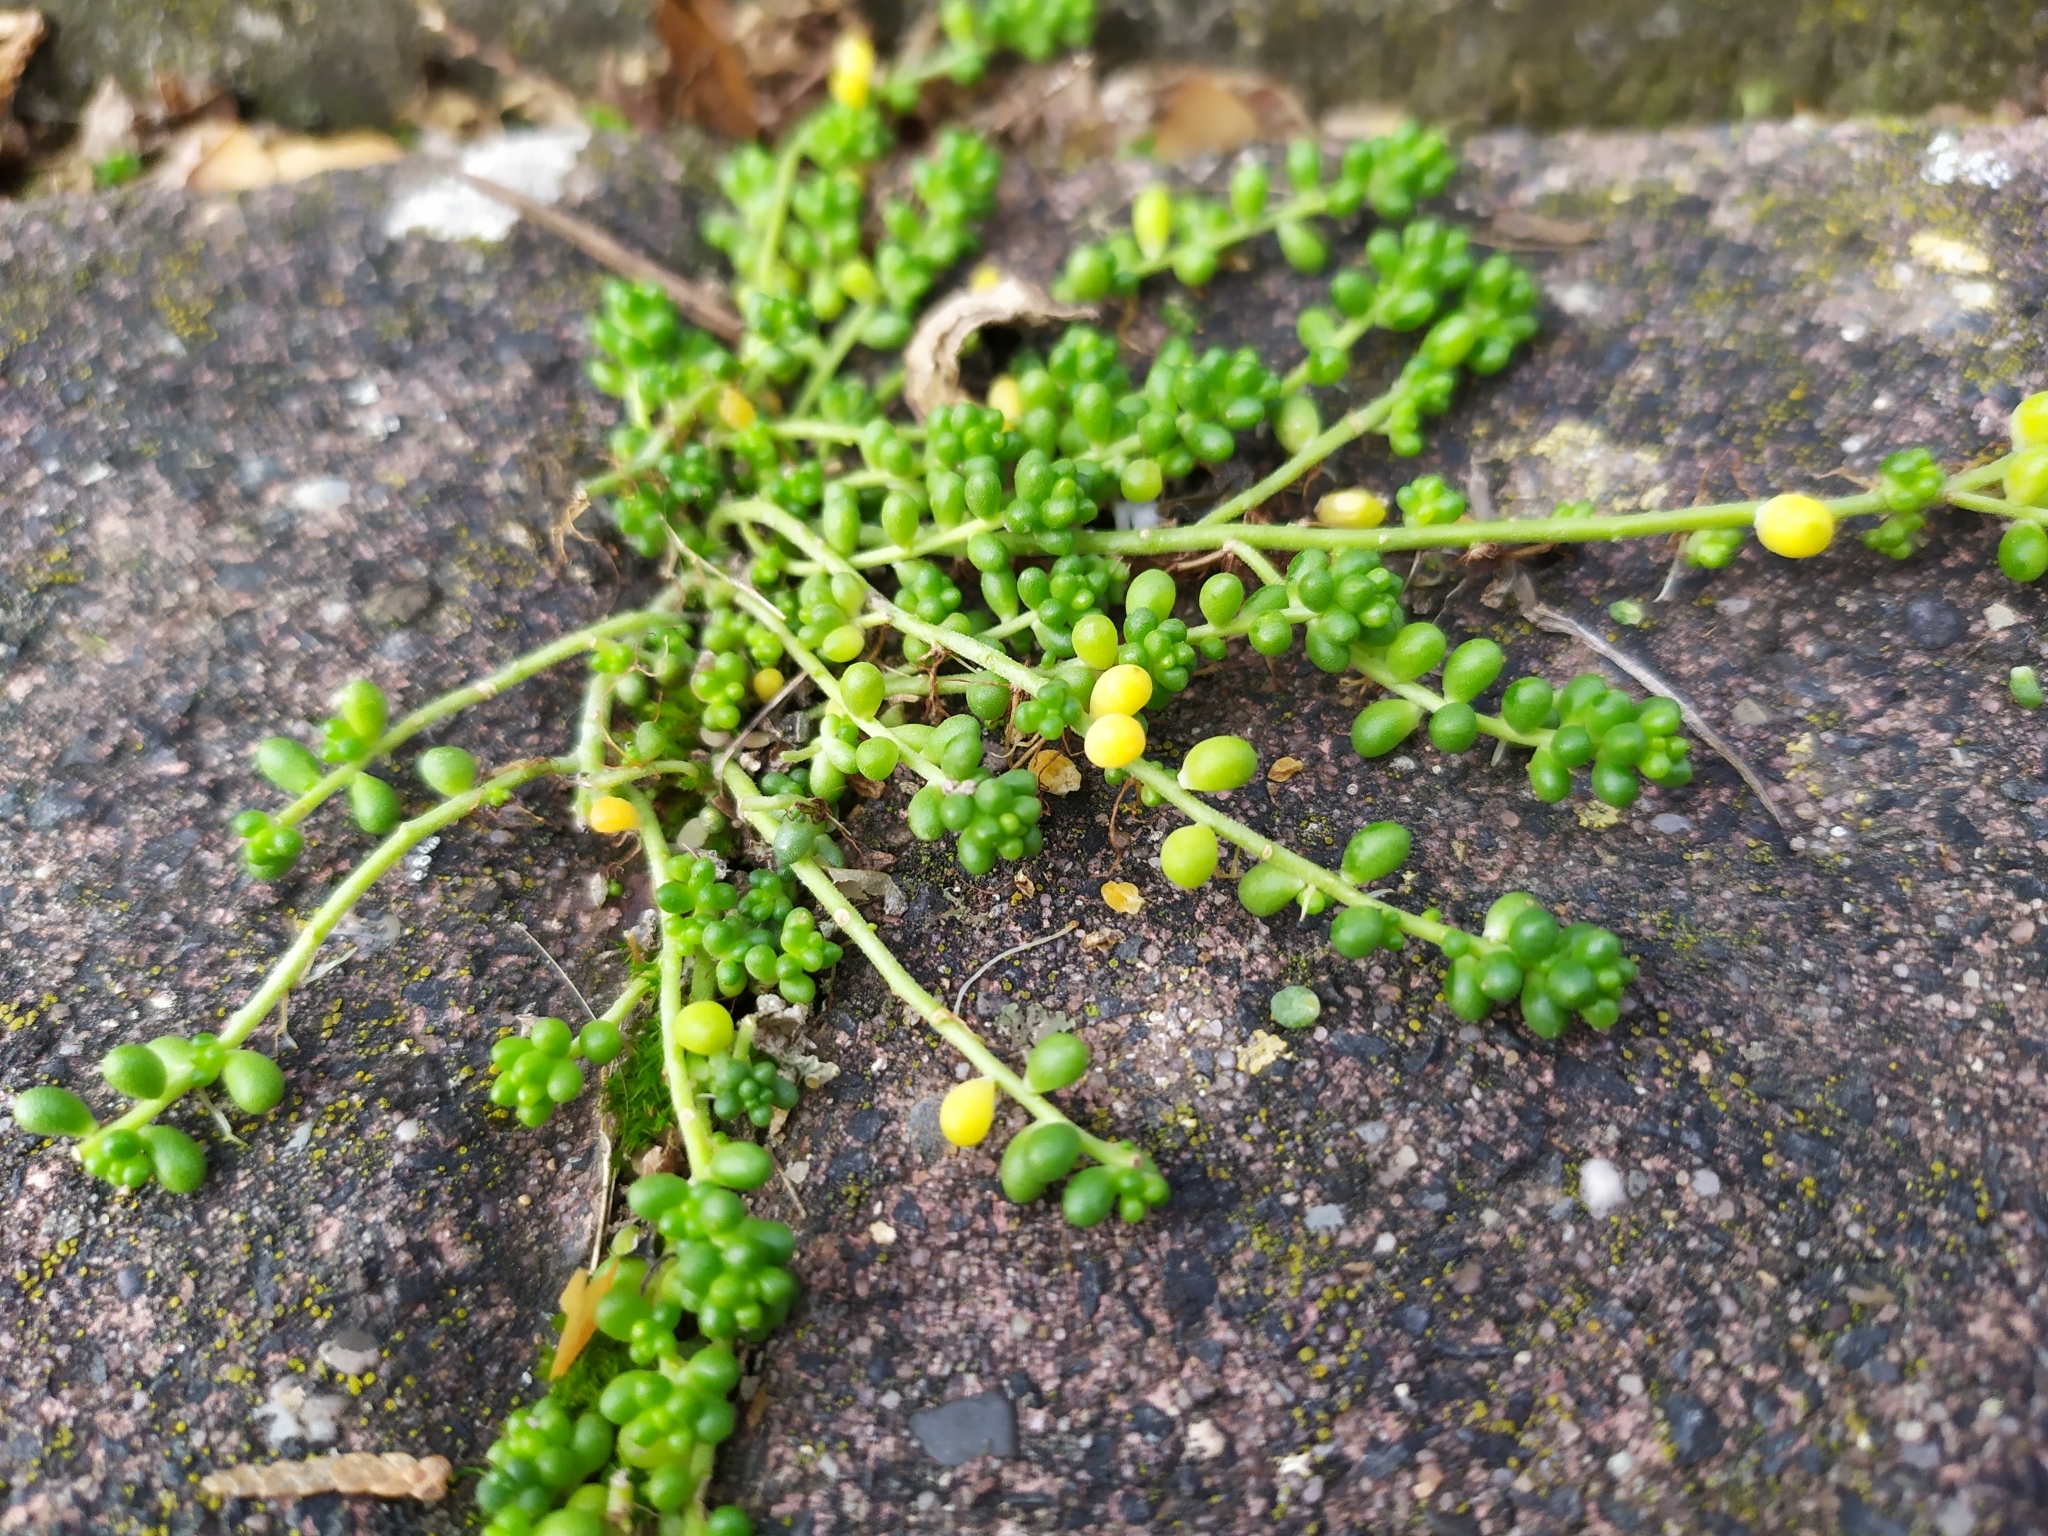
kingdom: Plantae
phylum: Tracheophyta
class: Magnoliopsida
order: Saxifragales
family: Crassulaceae
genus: Sedum
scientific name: Sedum album
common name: White stonecrop
